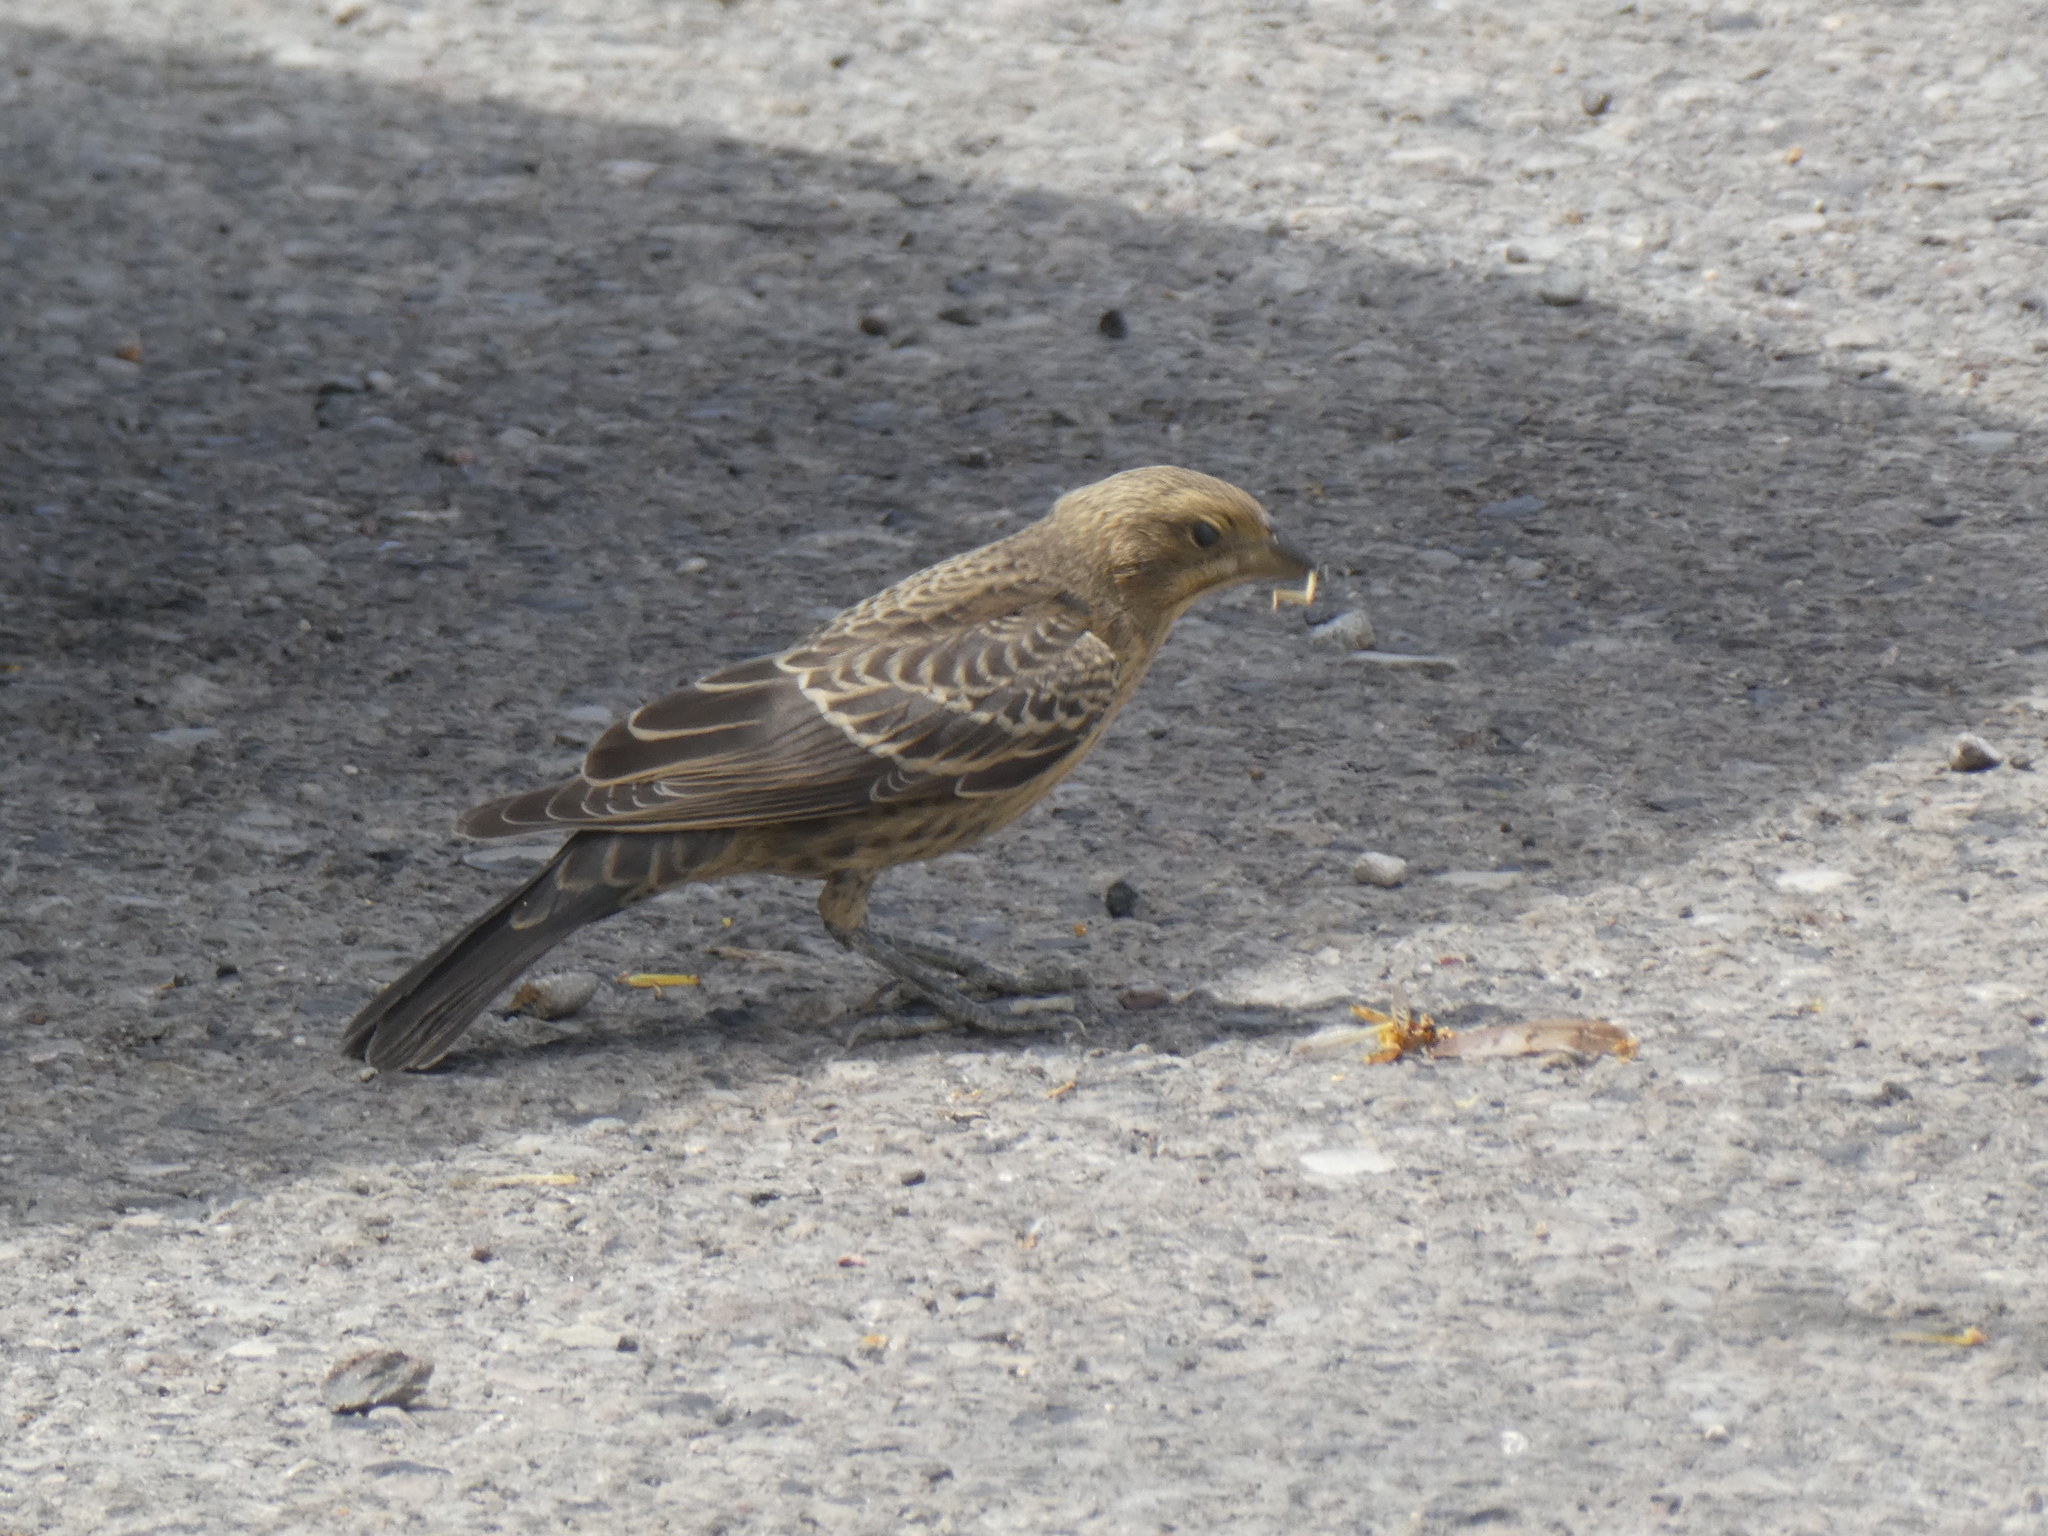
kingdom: Animalia
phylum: Chordata
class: Aves
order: Passeriformes
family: Icteridae
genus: Molothrus
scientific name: Molothrus ater
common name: Brown-headed cowbird
